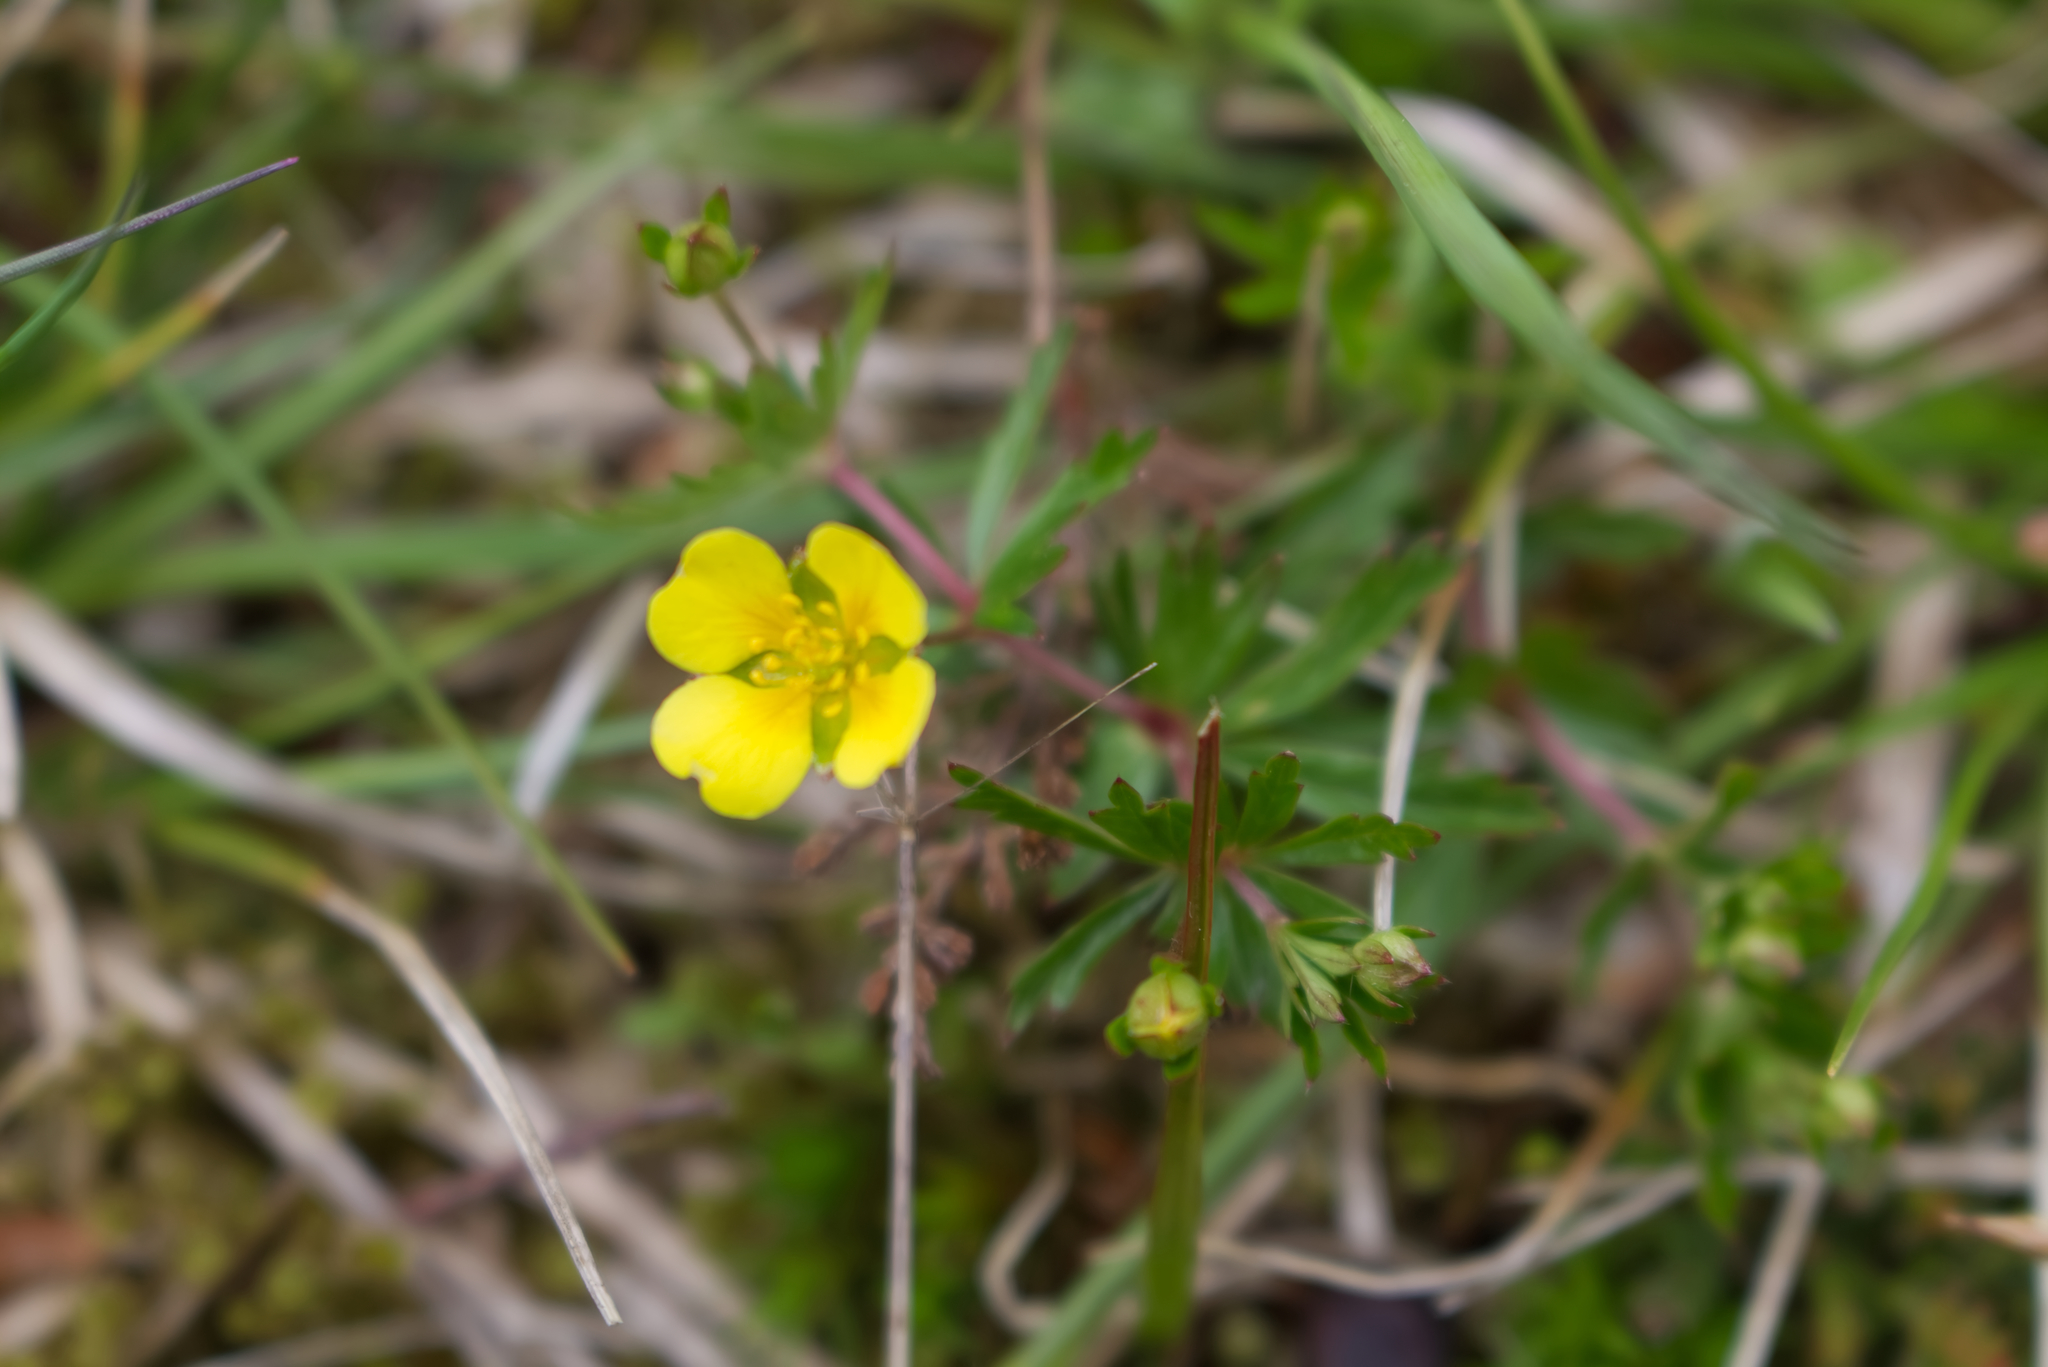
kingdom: Plantae
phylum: Tracheophyta
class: Magnoliopsida
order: Rosales
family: Rosaceae
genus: Potentilla
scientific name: Potentilla erecta
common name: Tormentil
